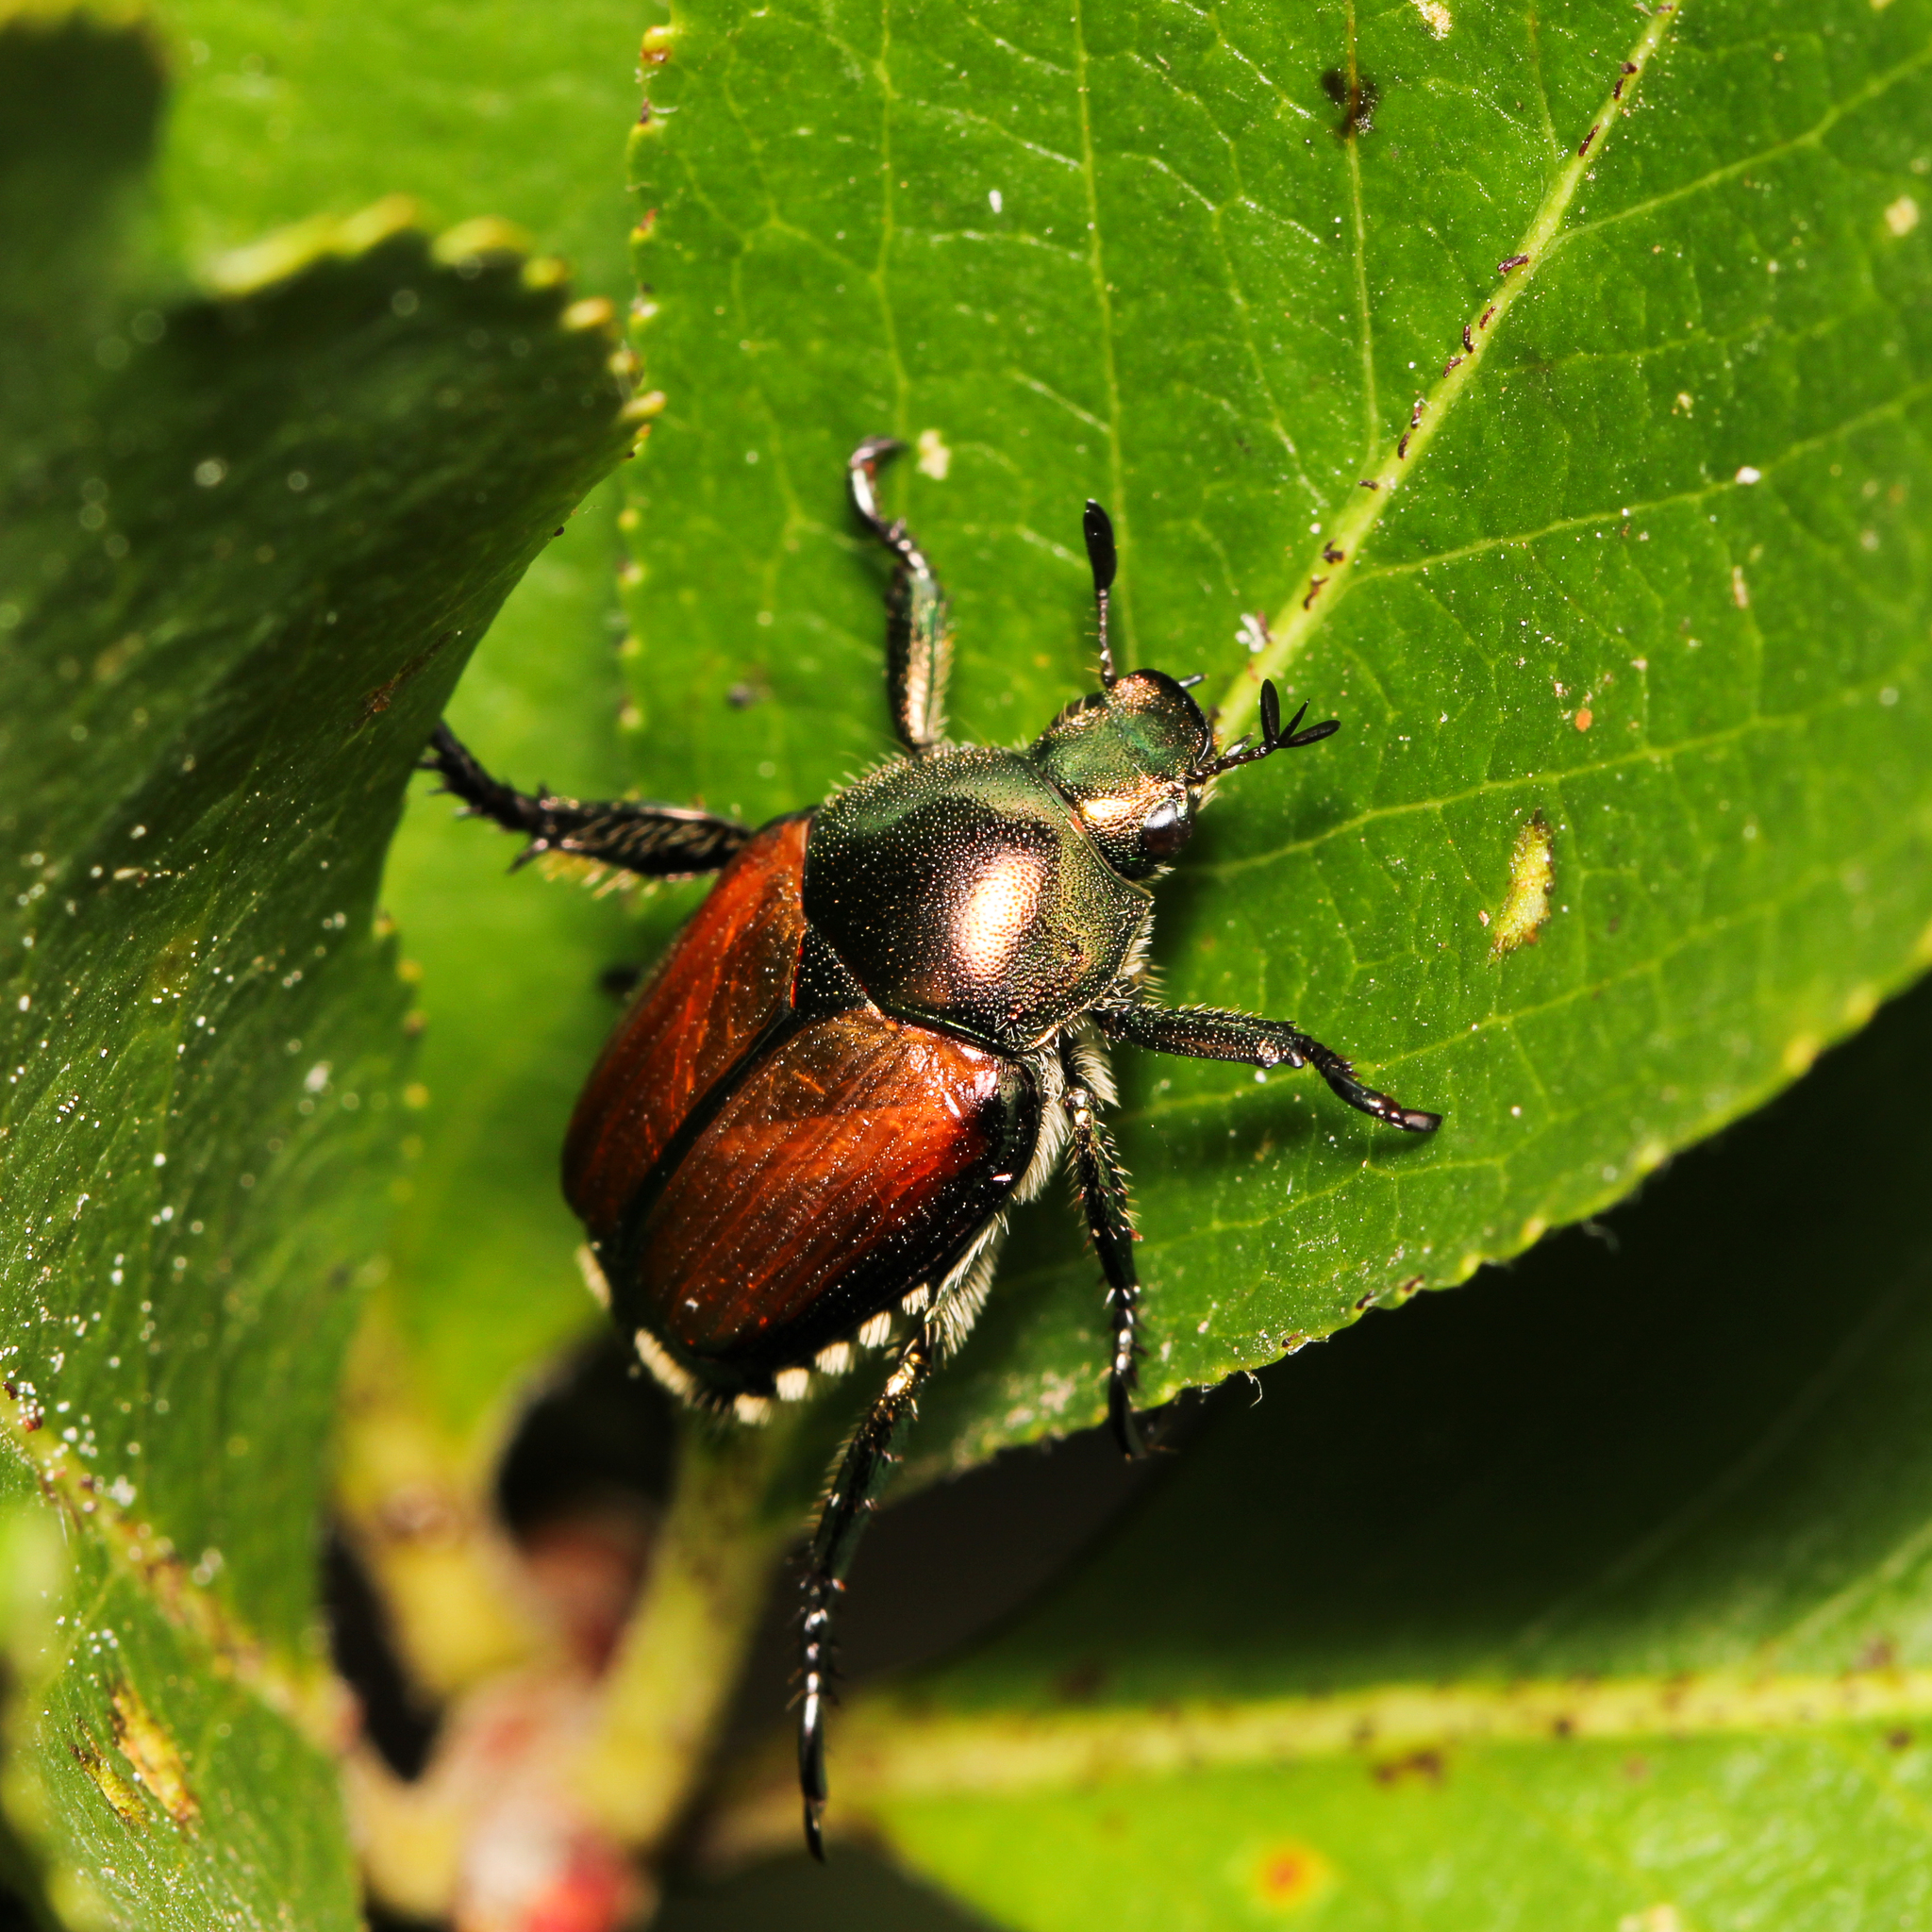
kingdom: Animalia
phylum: Arthropoda
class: Insecta
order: Coleoptera
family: Scarabaeidae
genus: Popillia
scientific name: Popillia japonica
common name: Japanese beetle
